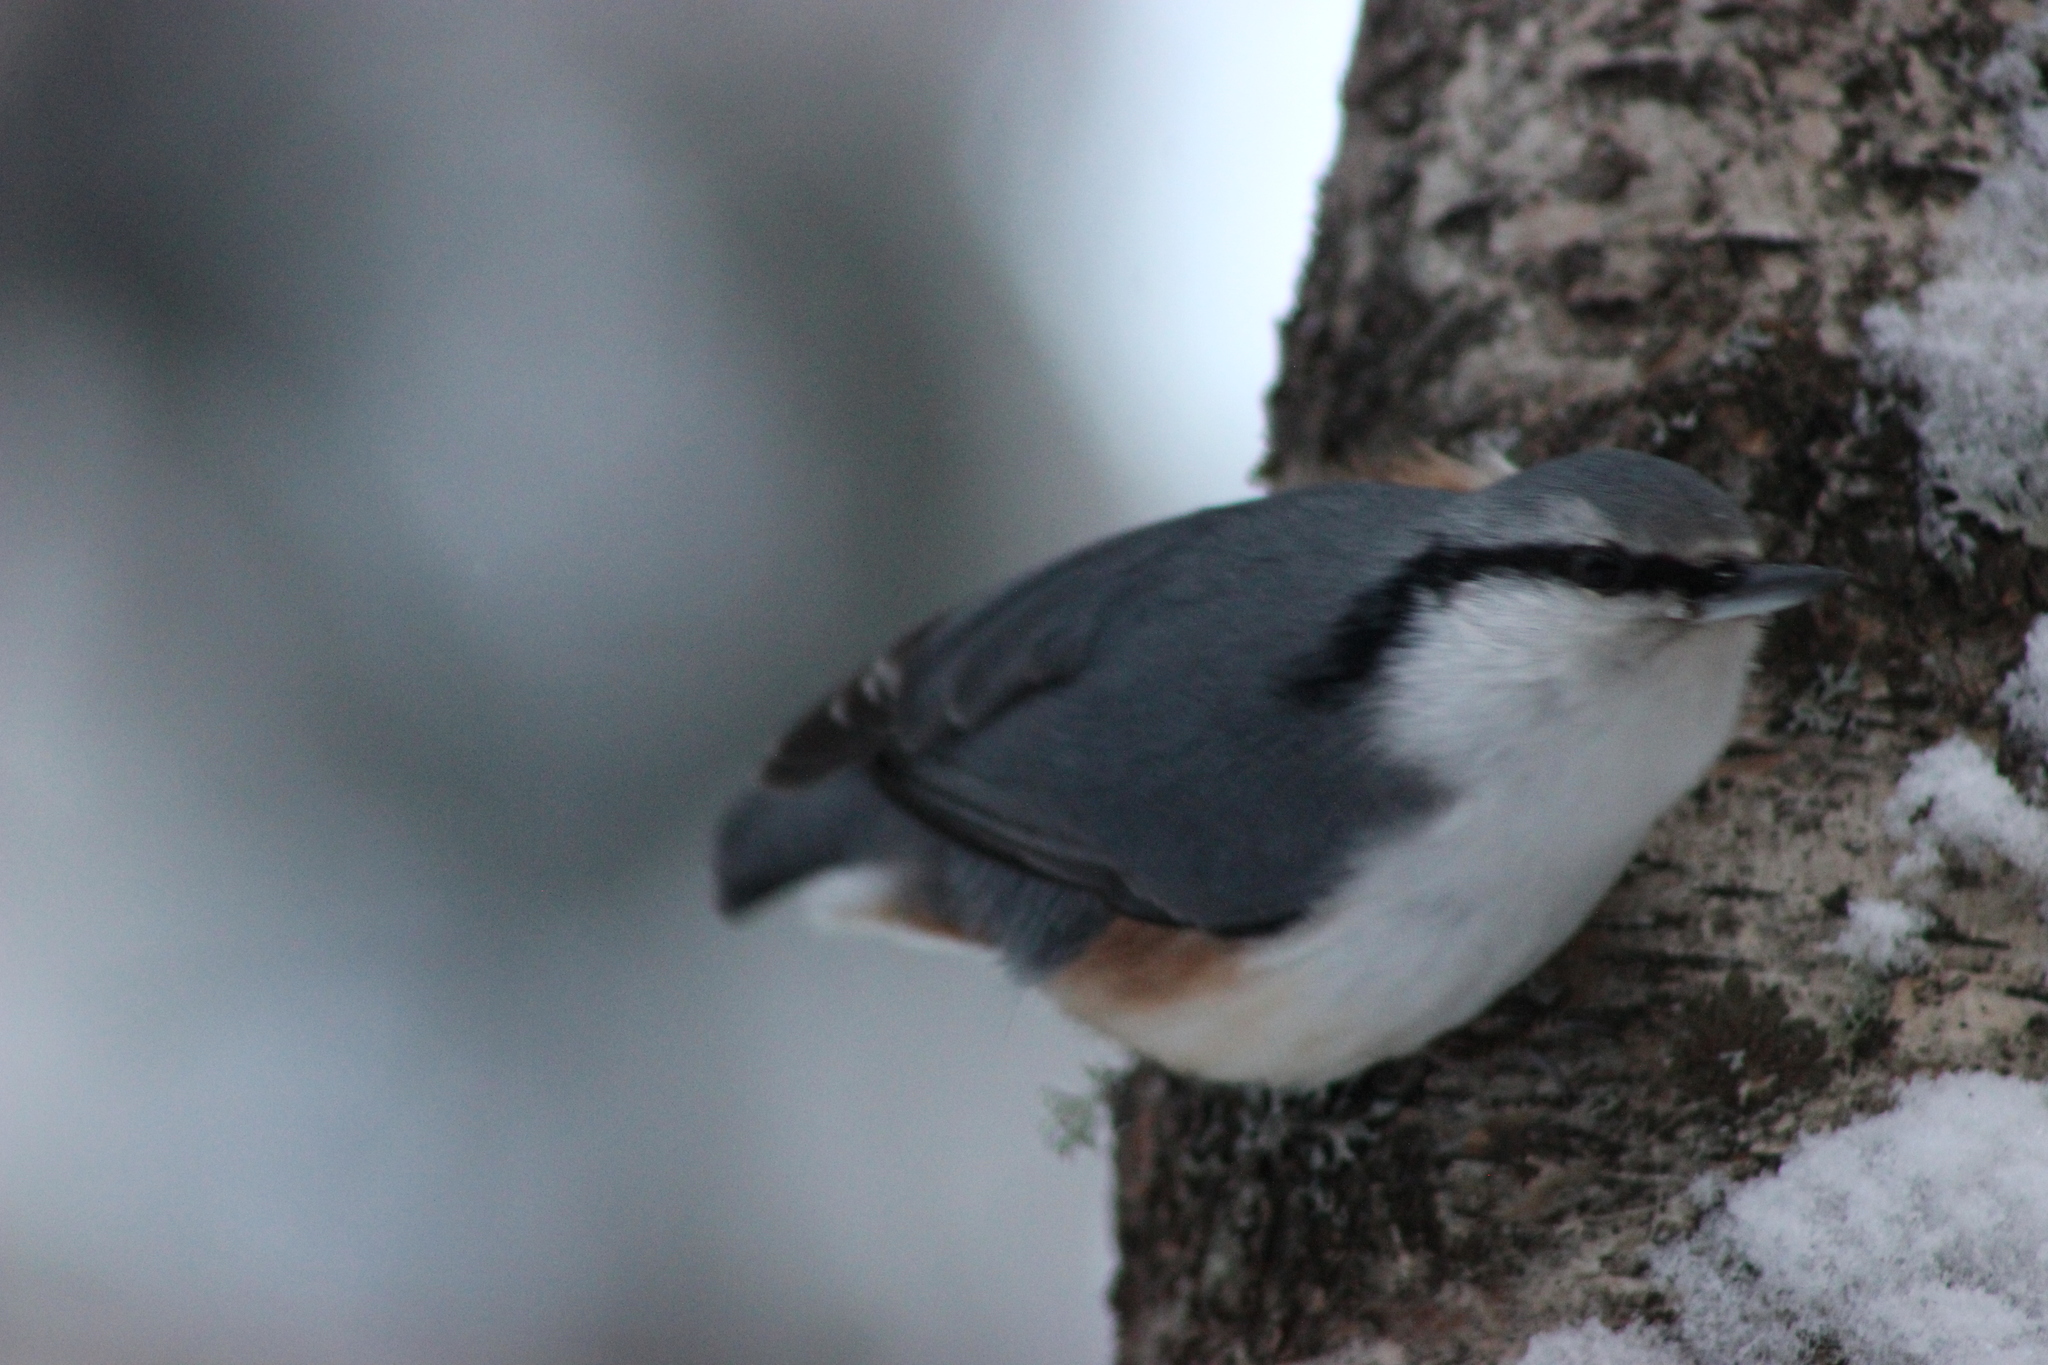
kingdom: Animalia
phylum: Chordata
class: Aves
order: Passeriformes
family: Sittidae
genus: Sitta
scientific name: Sitta europaea
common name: Eurasian nuthatch
